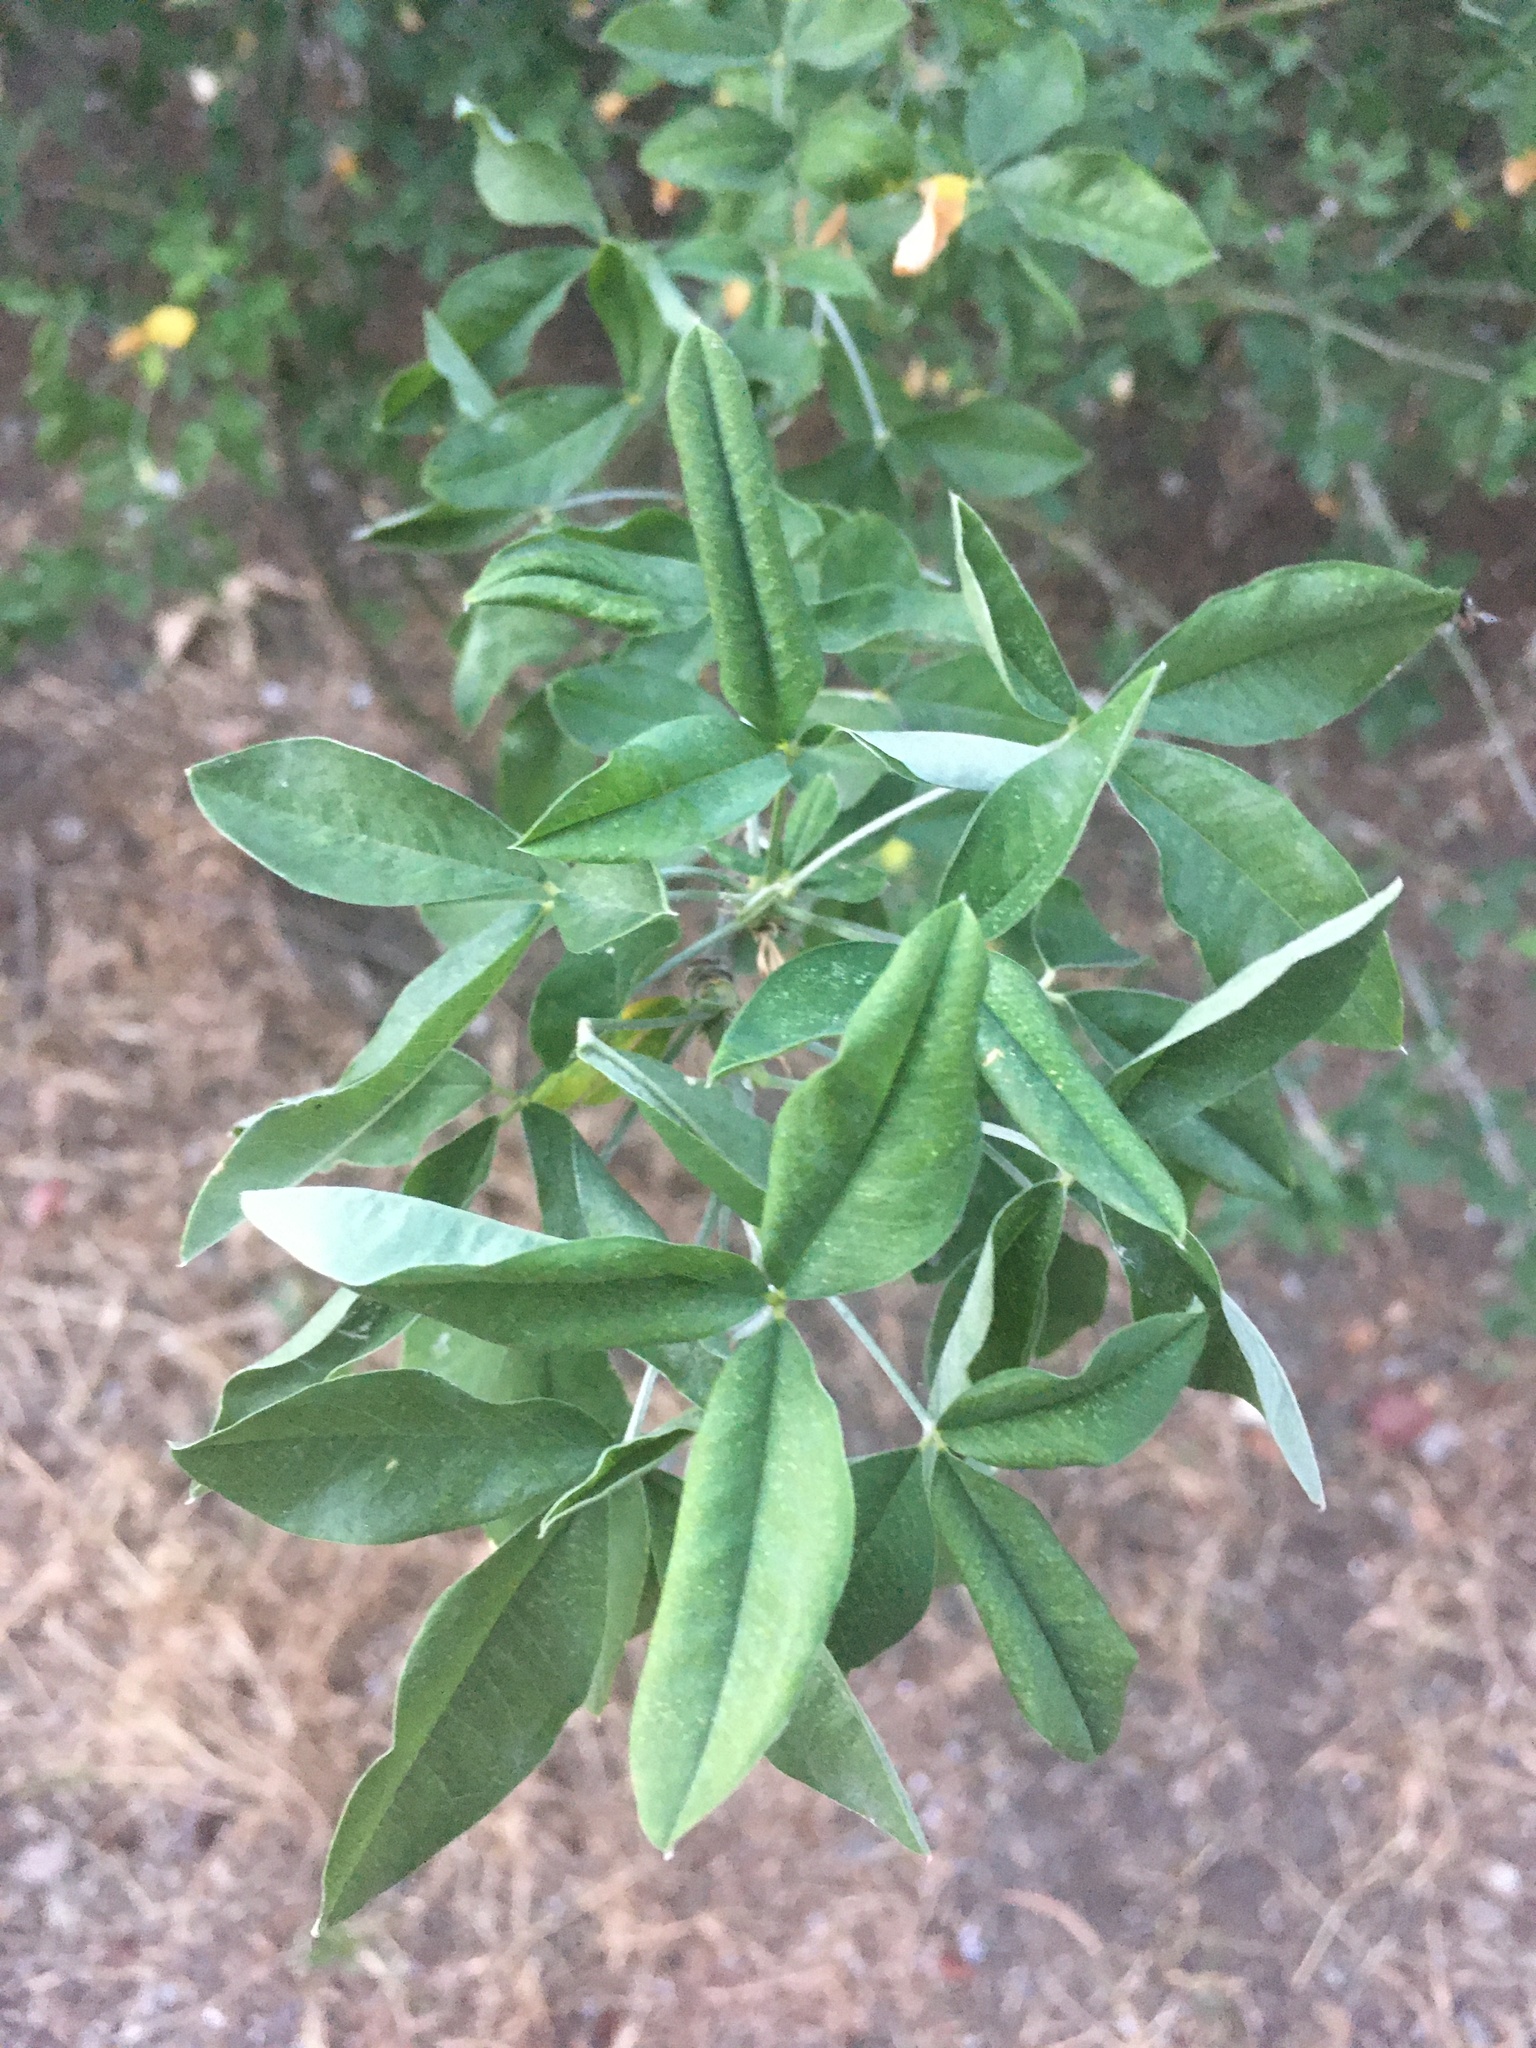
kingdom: Plantae
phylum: Tracheophyta
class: Magnoliopsida
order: Fabales
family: Fabaceae
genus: Laburnum
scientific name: Laburnum anagyroides
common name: Laburnum
